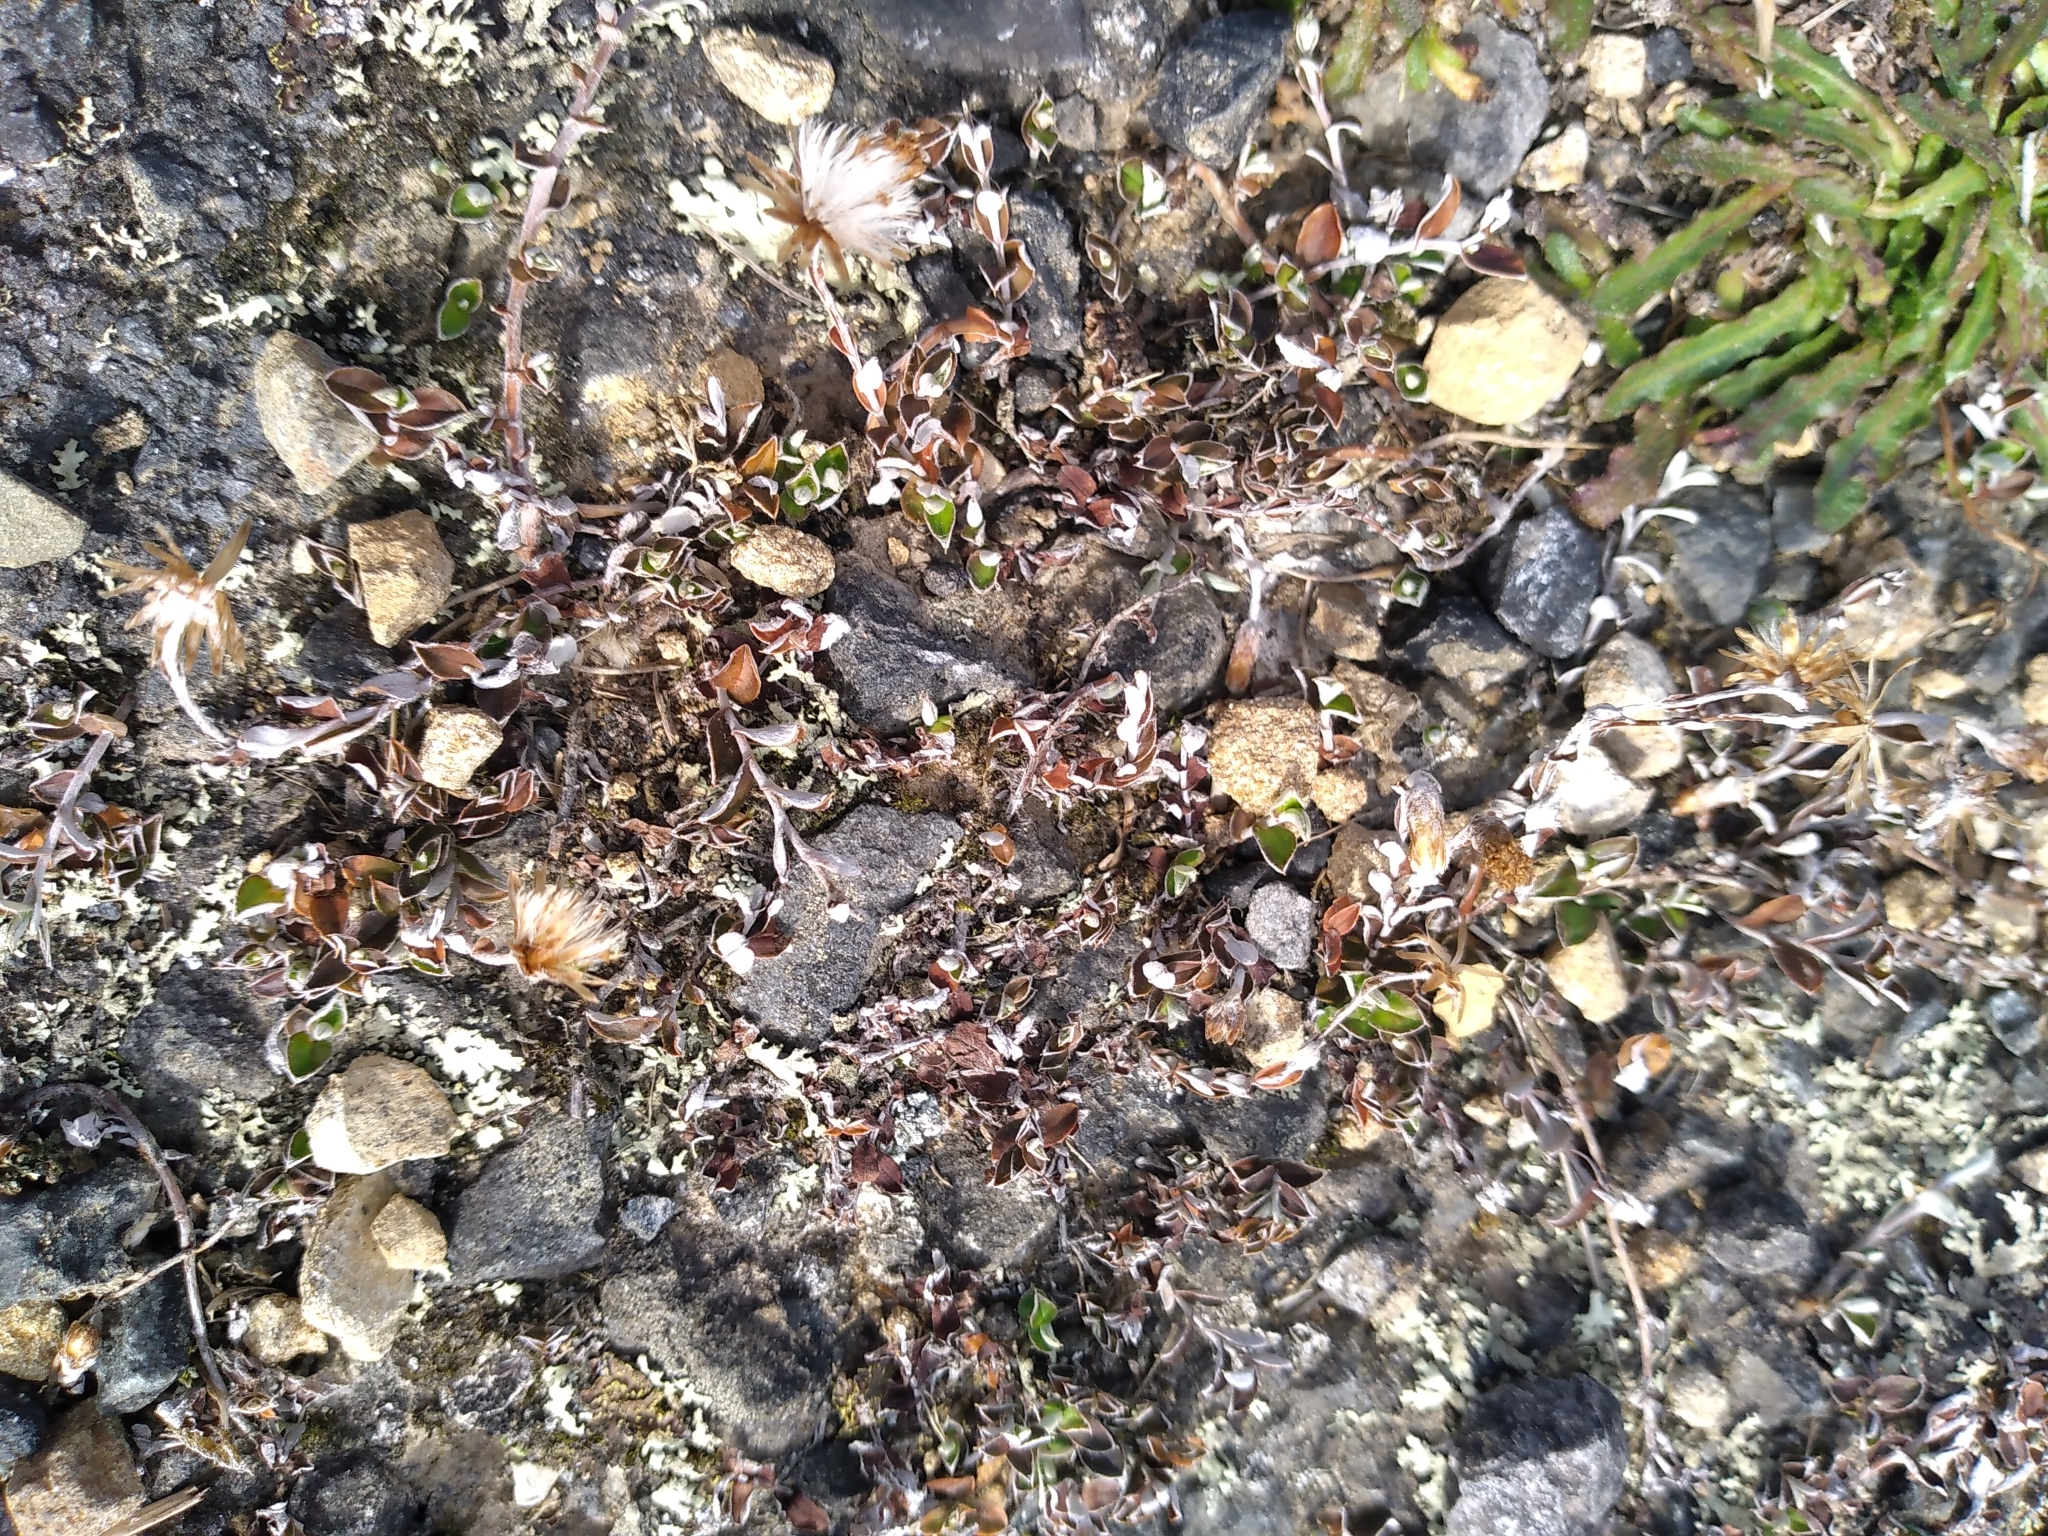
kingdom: Plantae
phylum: Tracheophyta
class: Magnoliopsida
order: Asterales
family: Asteraceae
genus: Helichrysum
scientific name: Helichrysum filicaule
